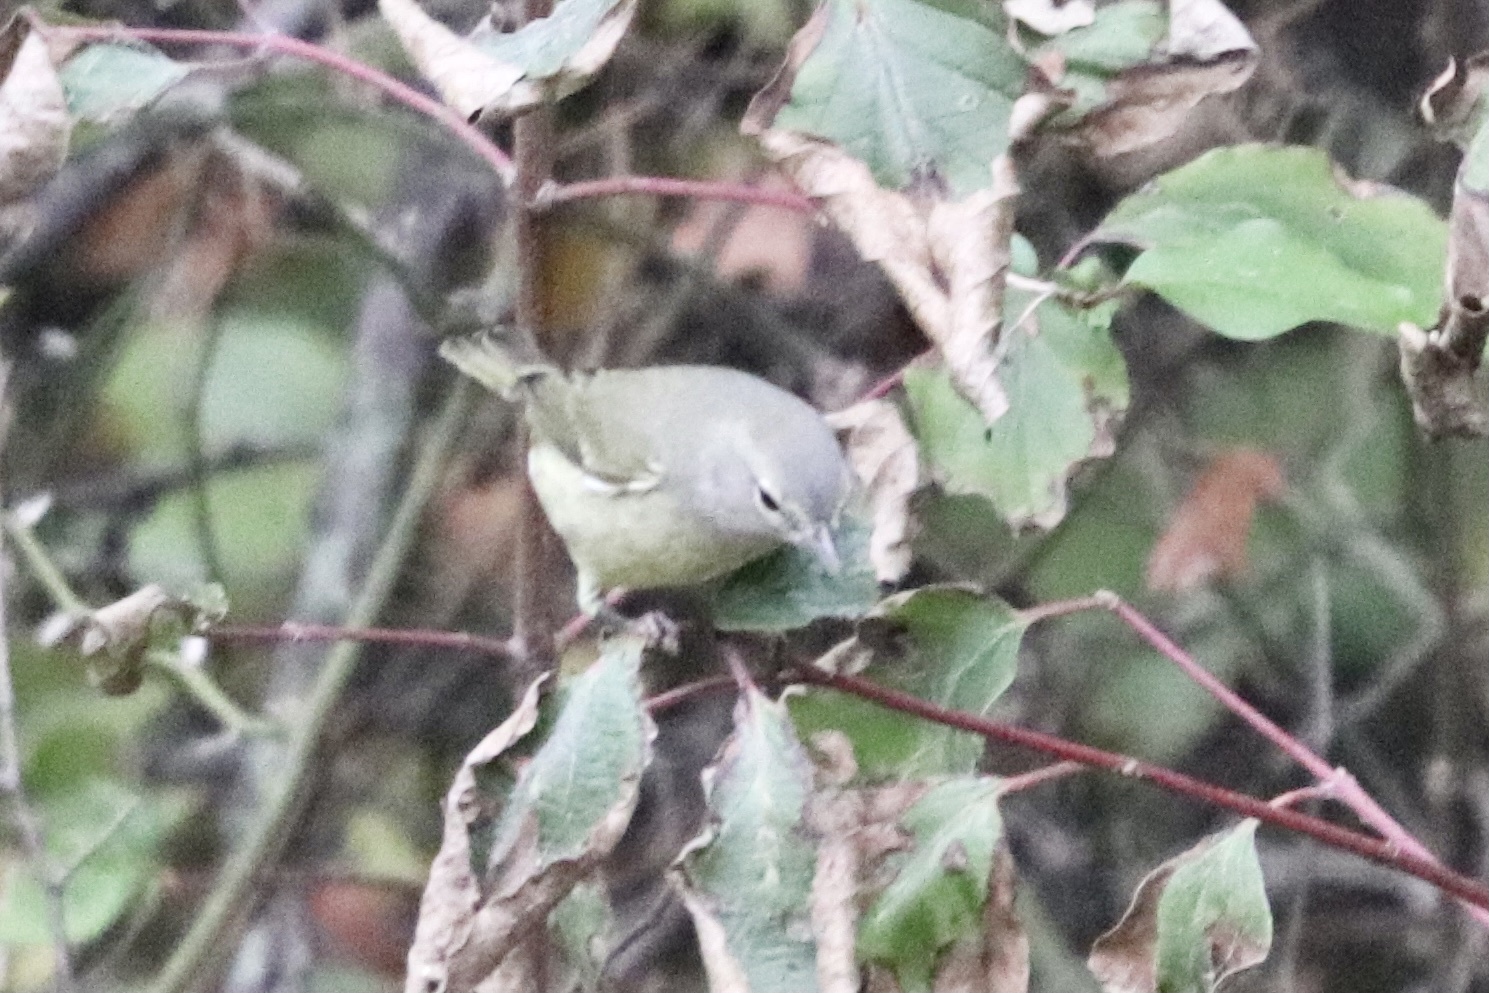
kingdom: Animalia
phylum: Chordata
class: Aves
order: Passeriformes
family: Parulidae
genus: Leiothlypis
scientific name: Leiothlypis celata
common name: Orange-crowned warbler
